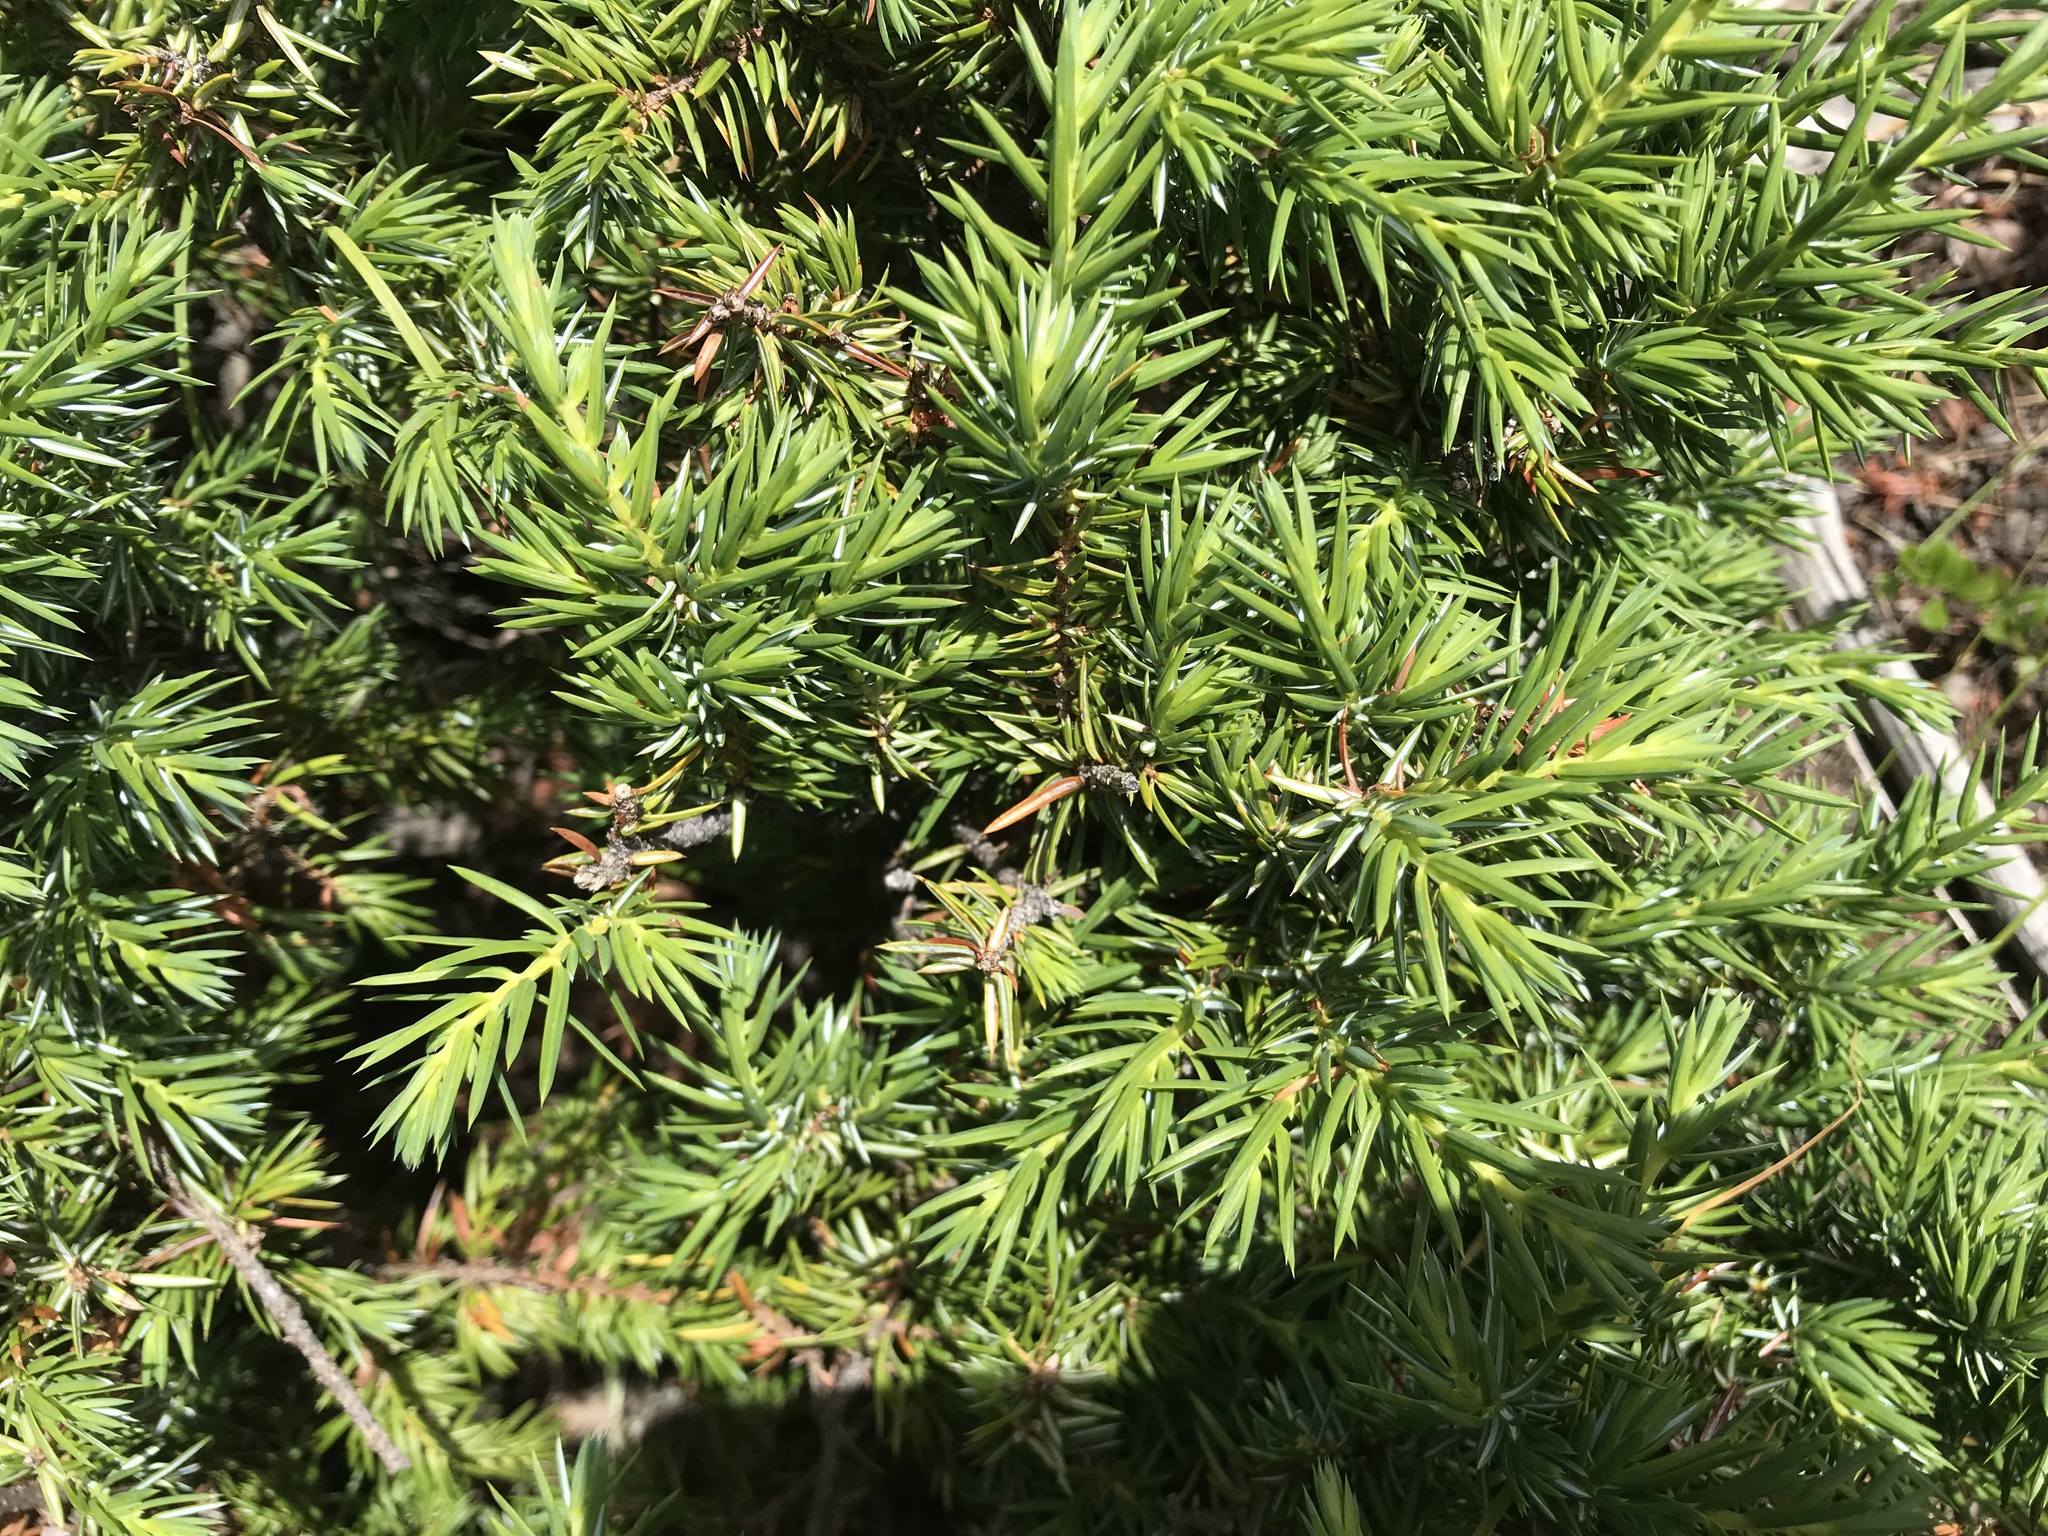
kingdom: Plantae
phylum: Tracheophyta
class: Pinopsida
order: Pinales
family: Cupressaceae
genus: Juniperus
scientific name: Juniperus communis
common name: Common juniper
